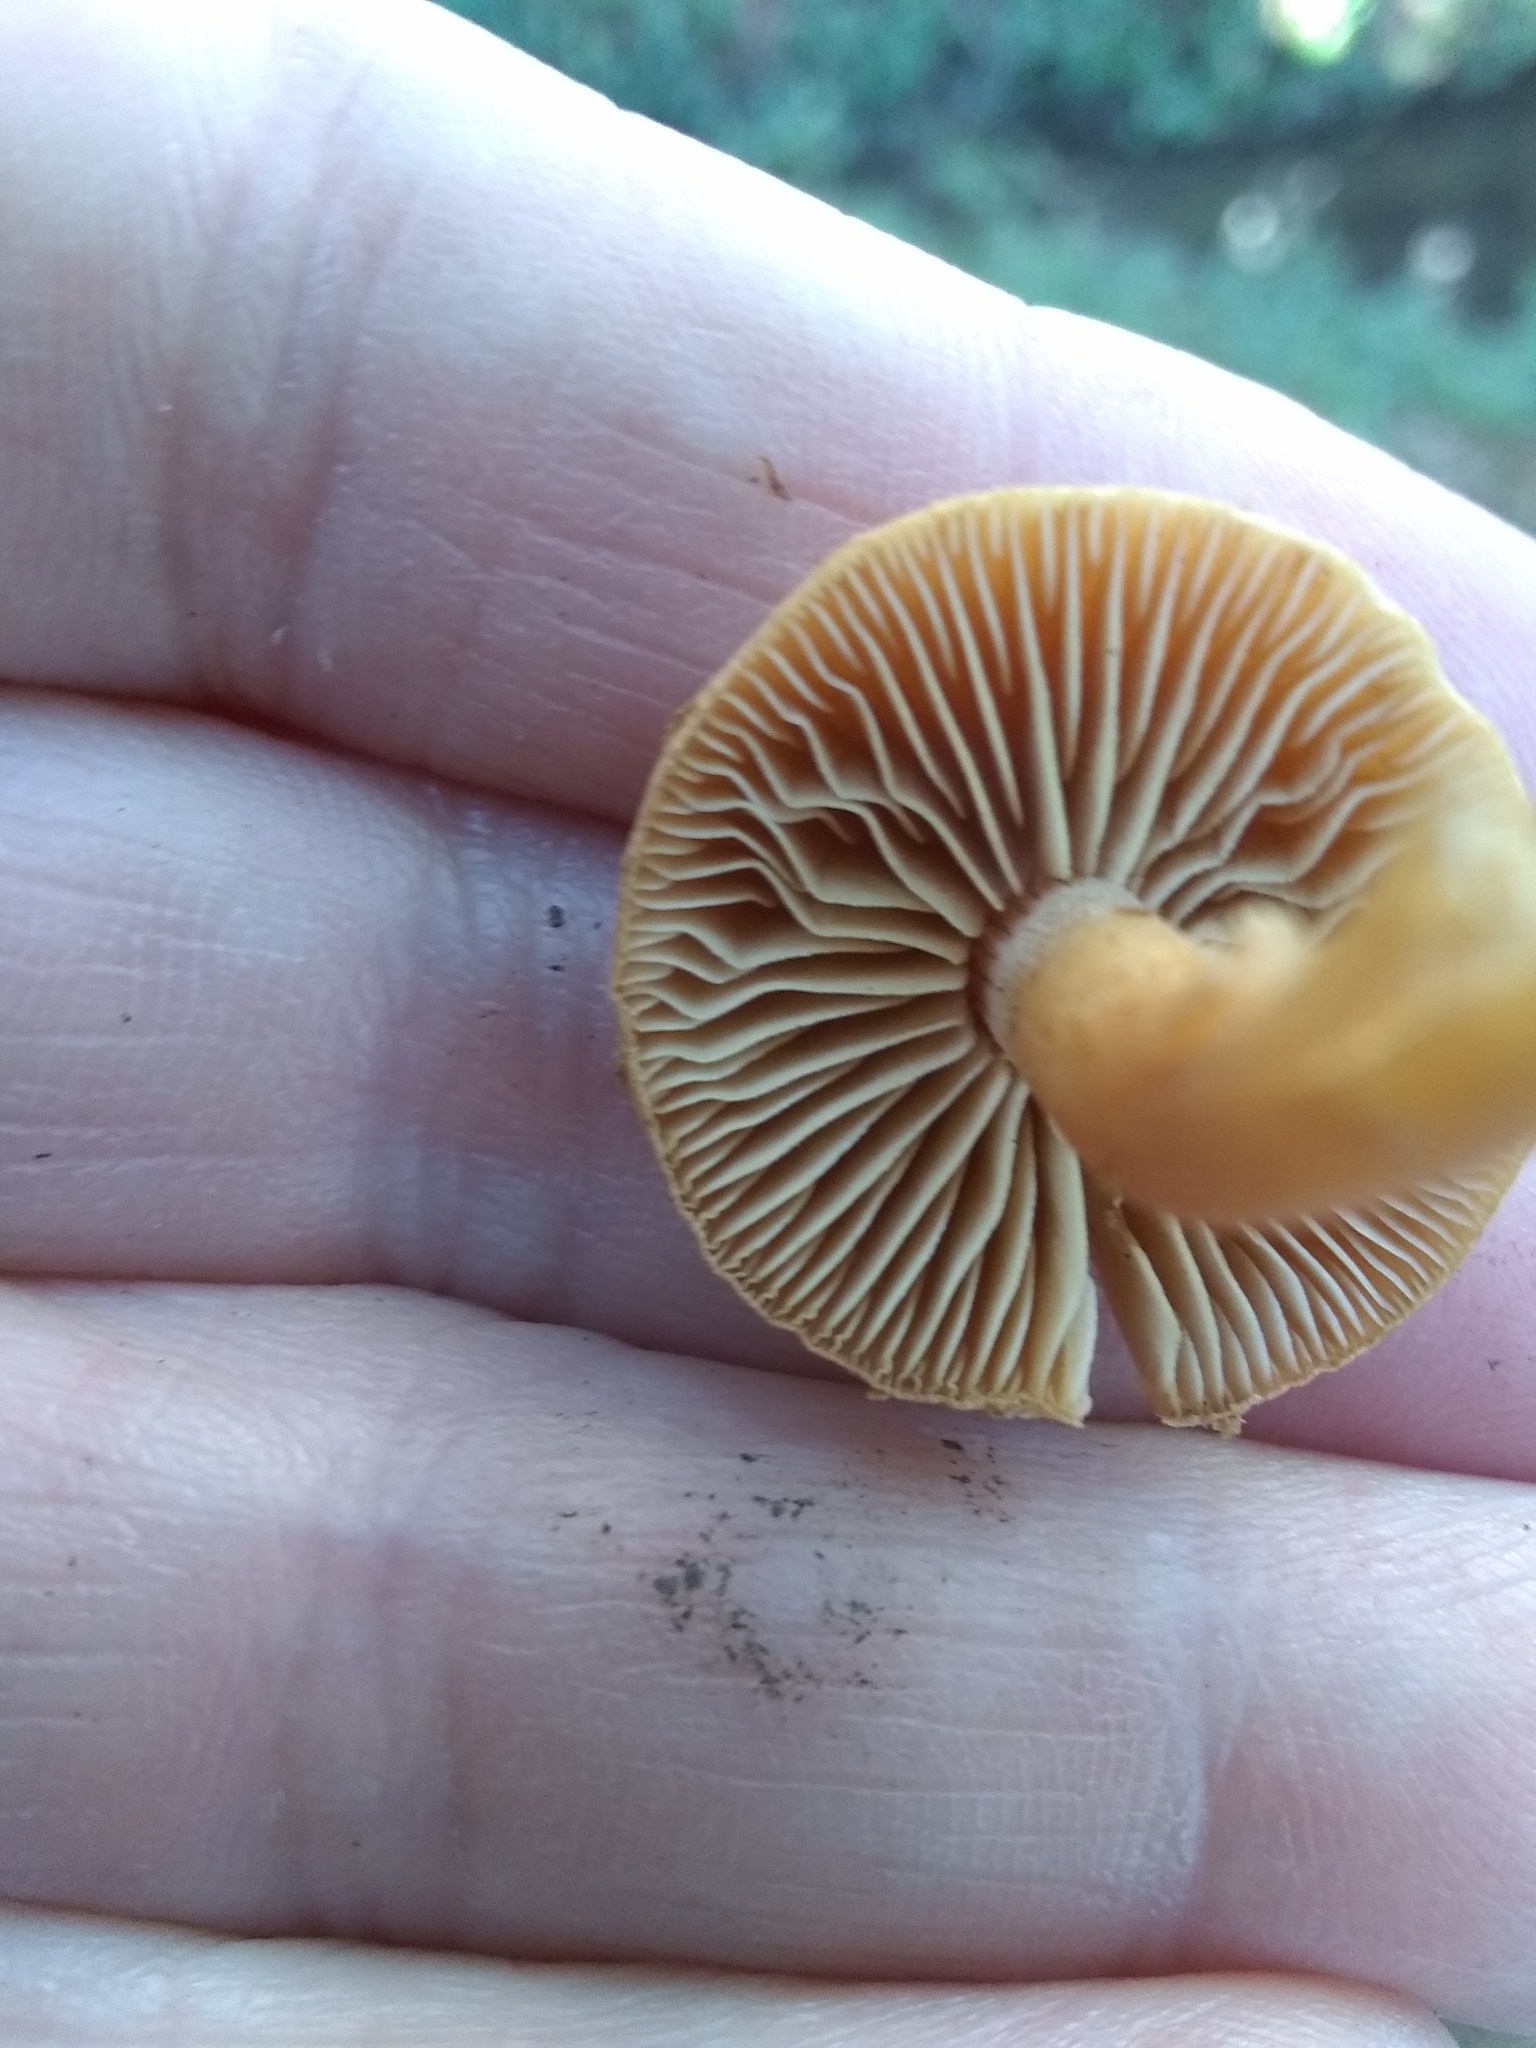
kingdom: Fungi
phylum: Basidiomycota
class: Agaricomycetes
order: Agaricales
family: Tubariaceae
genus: Tubaria
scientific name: Tubaria furfuracea
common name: Scurfy twiglet
